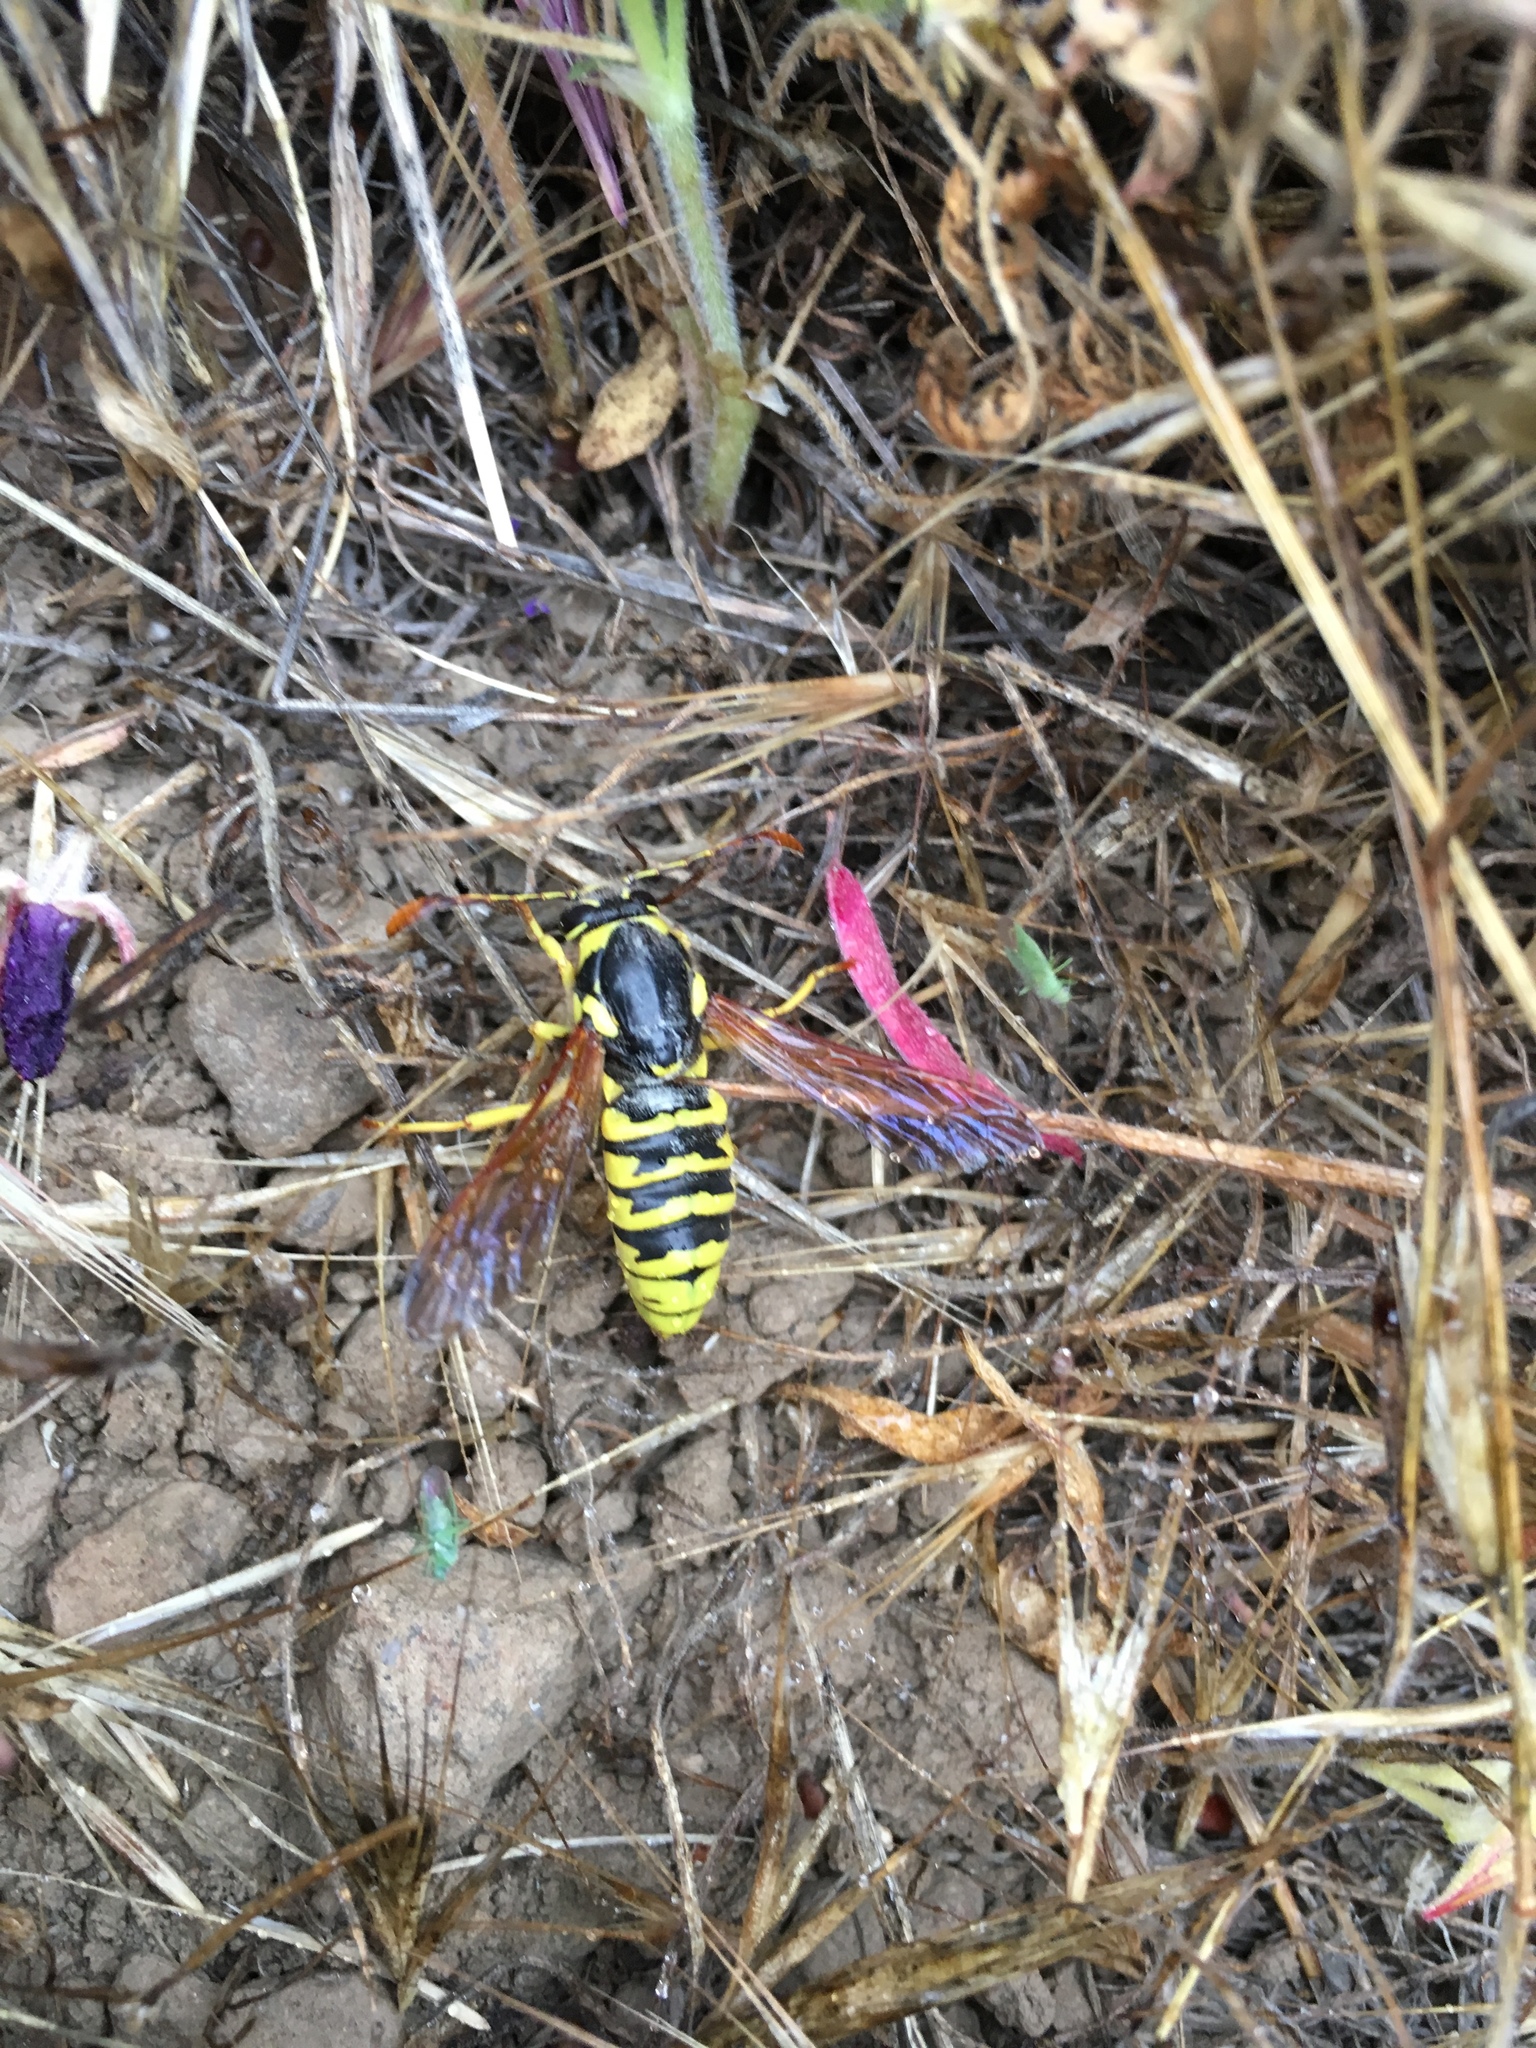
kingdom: Animalia
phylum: Arthropoda
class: Insecta
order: Hymenoptera
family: Masaridae
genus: Pseudomasaris
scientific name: Pseudomasaris vespoides
